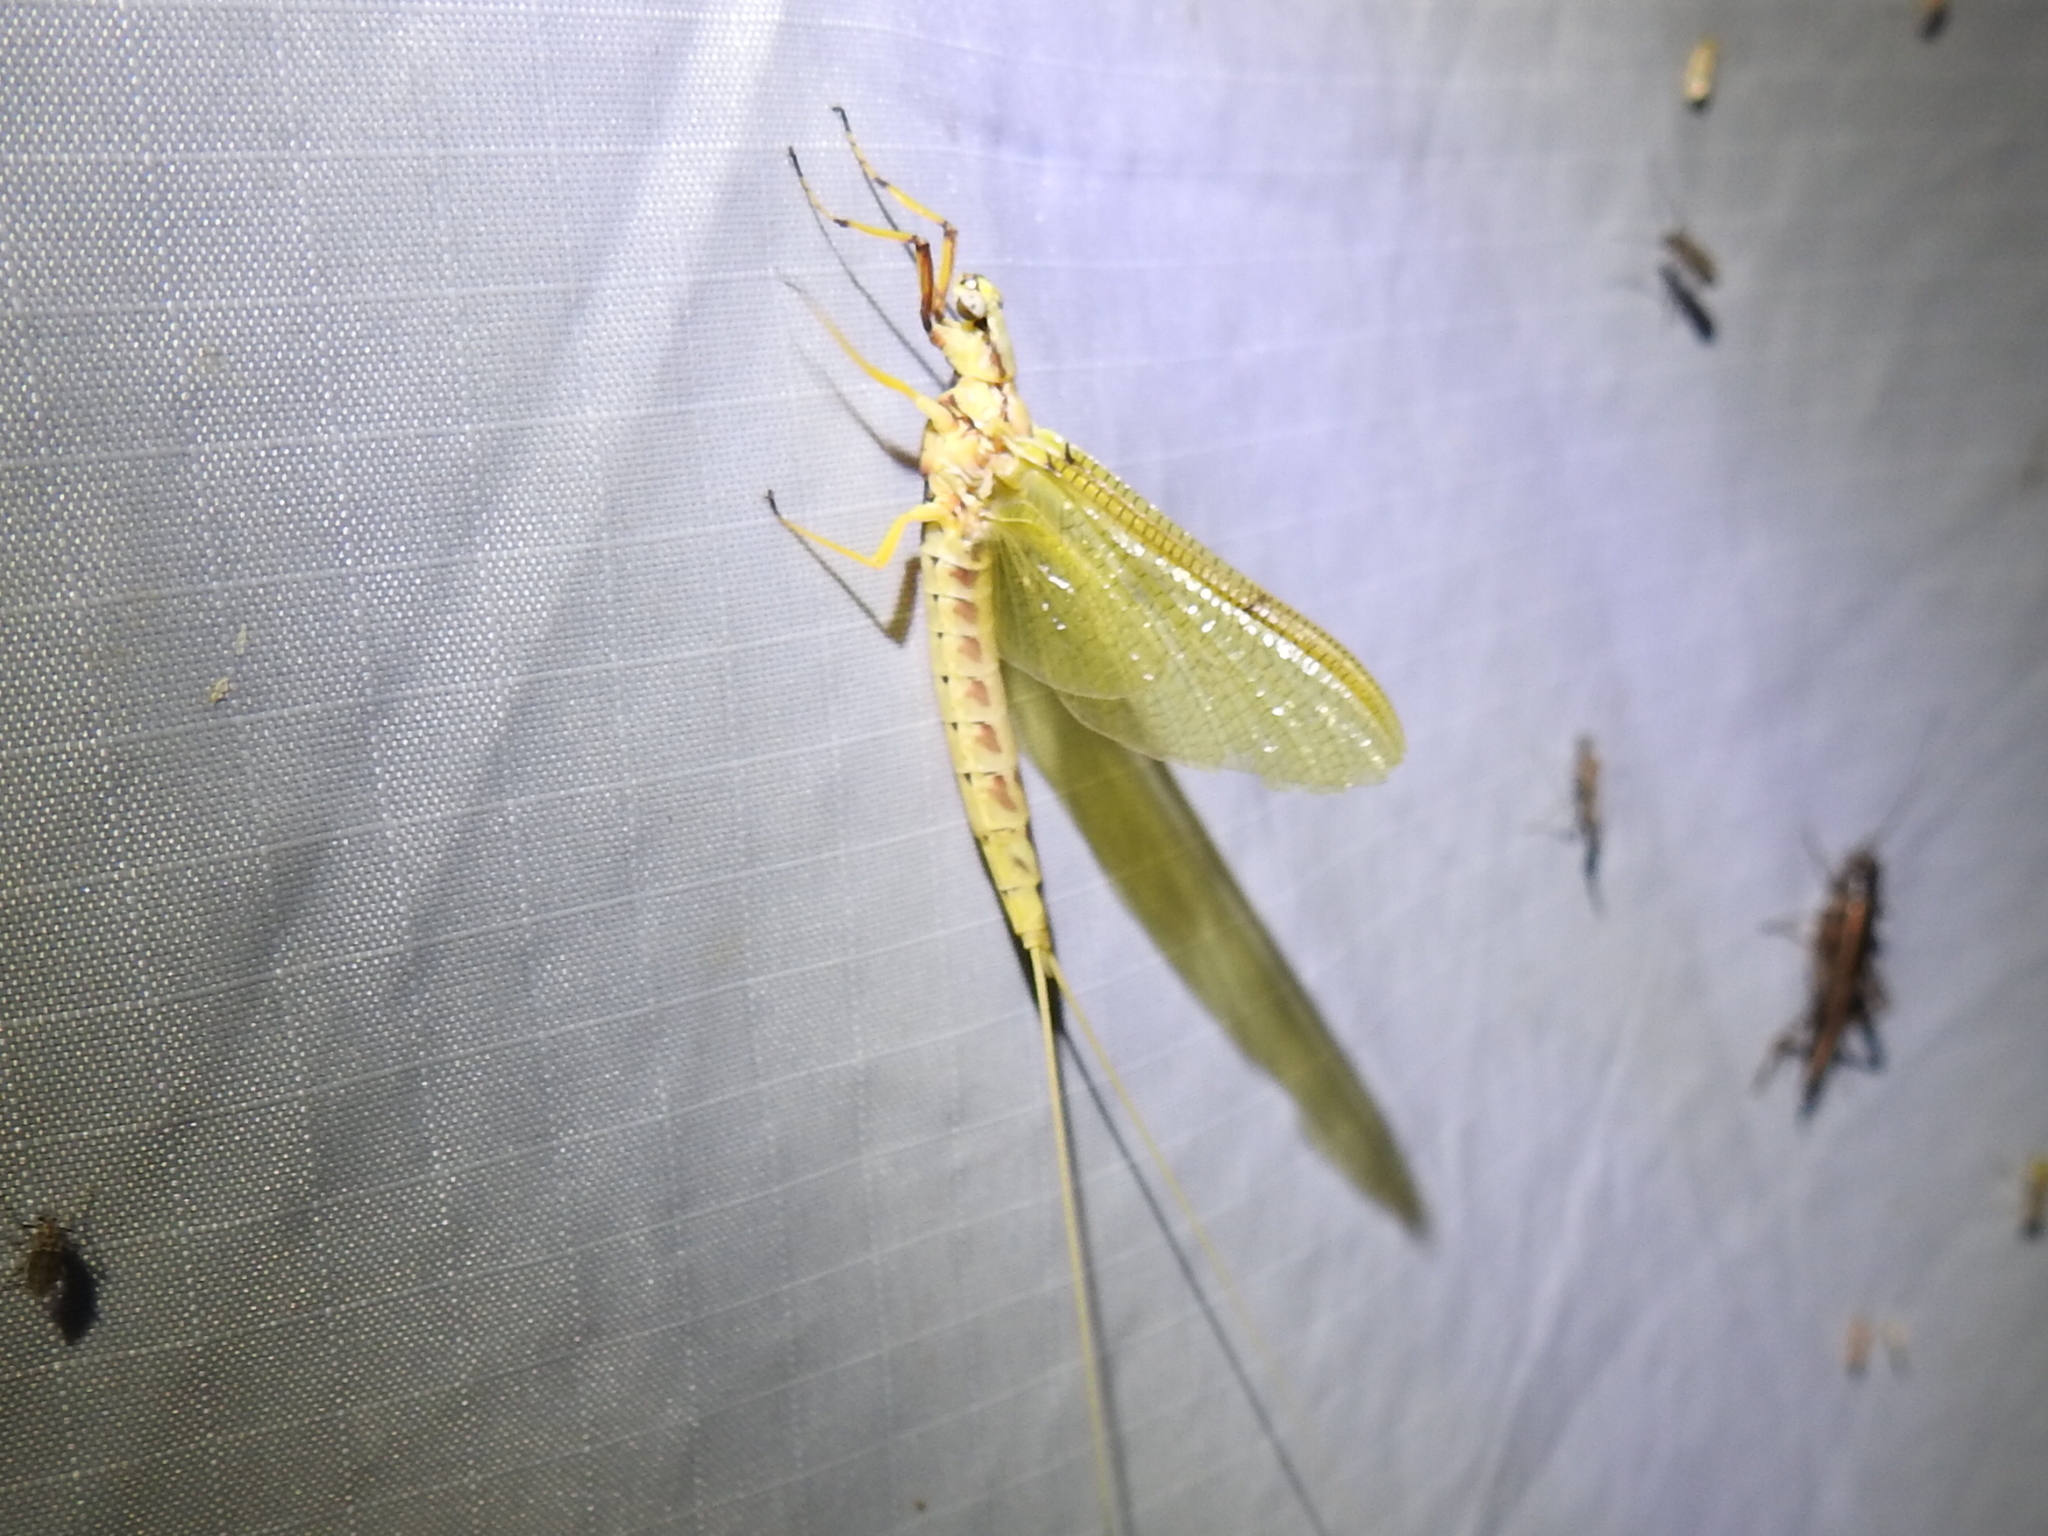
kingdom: Animalia
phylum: Arthropoda
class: Insecta
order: Ephemeroptera
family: Ephemeridae
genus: Hexagenia
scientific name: Hexagenia limbata
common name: Giant mayfly
